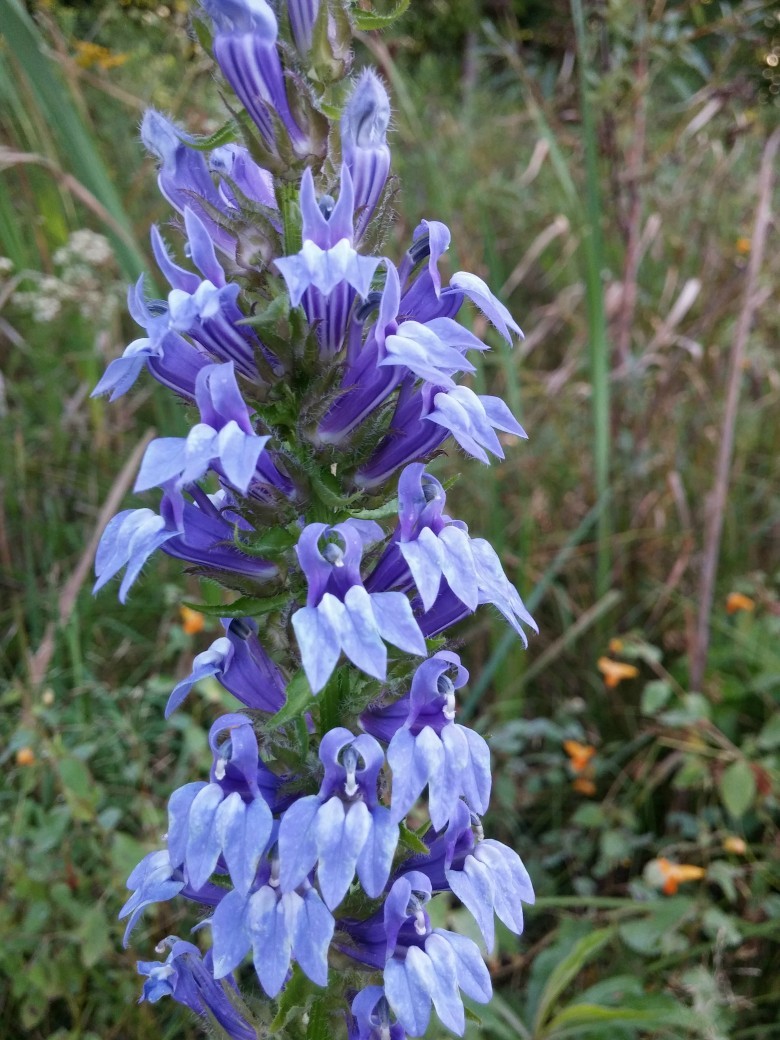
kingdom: Plantae
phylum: Tracheophyta
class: Magnoliopsida
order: Asterales
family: Campanulaceae
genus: Lobelia
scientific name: Lobelia siphilitica
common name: Great lobelia
